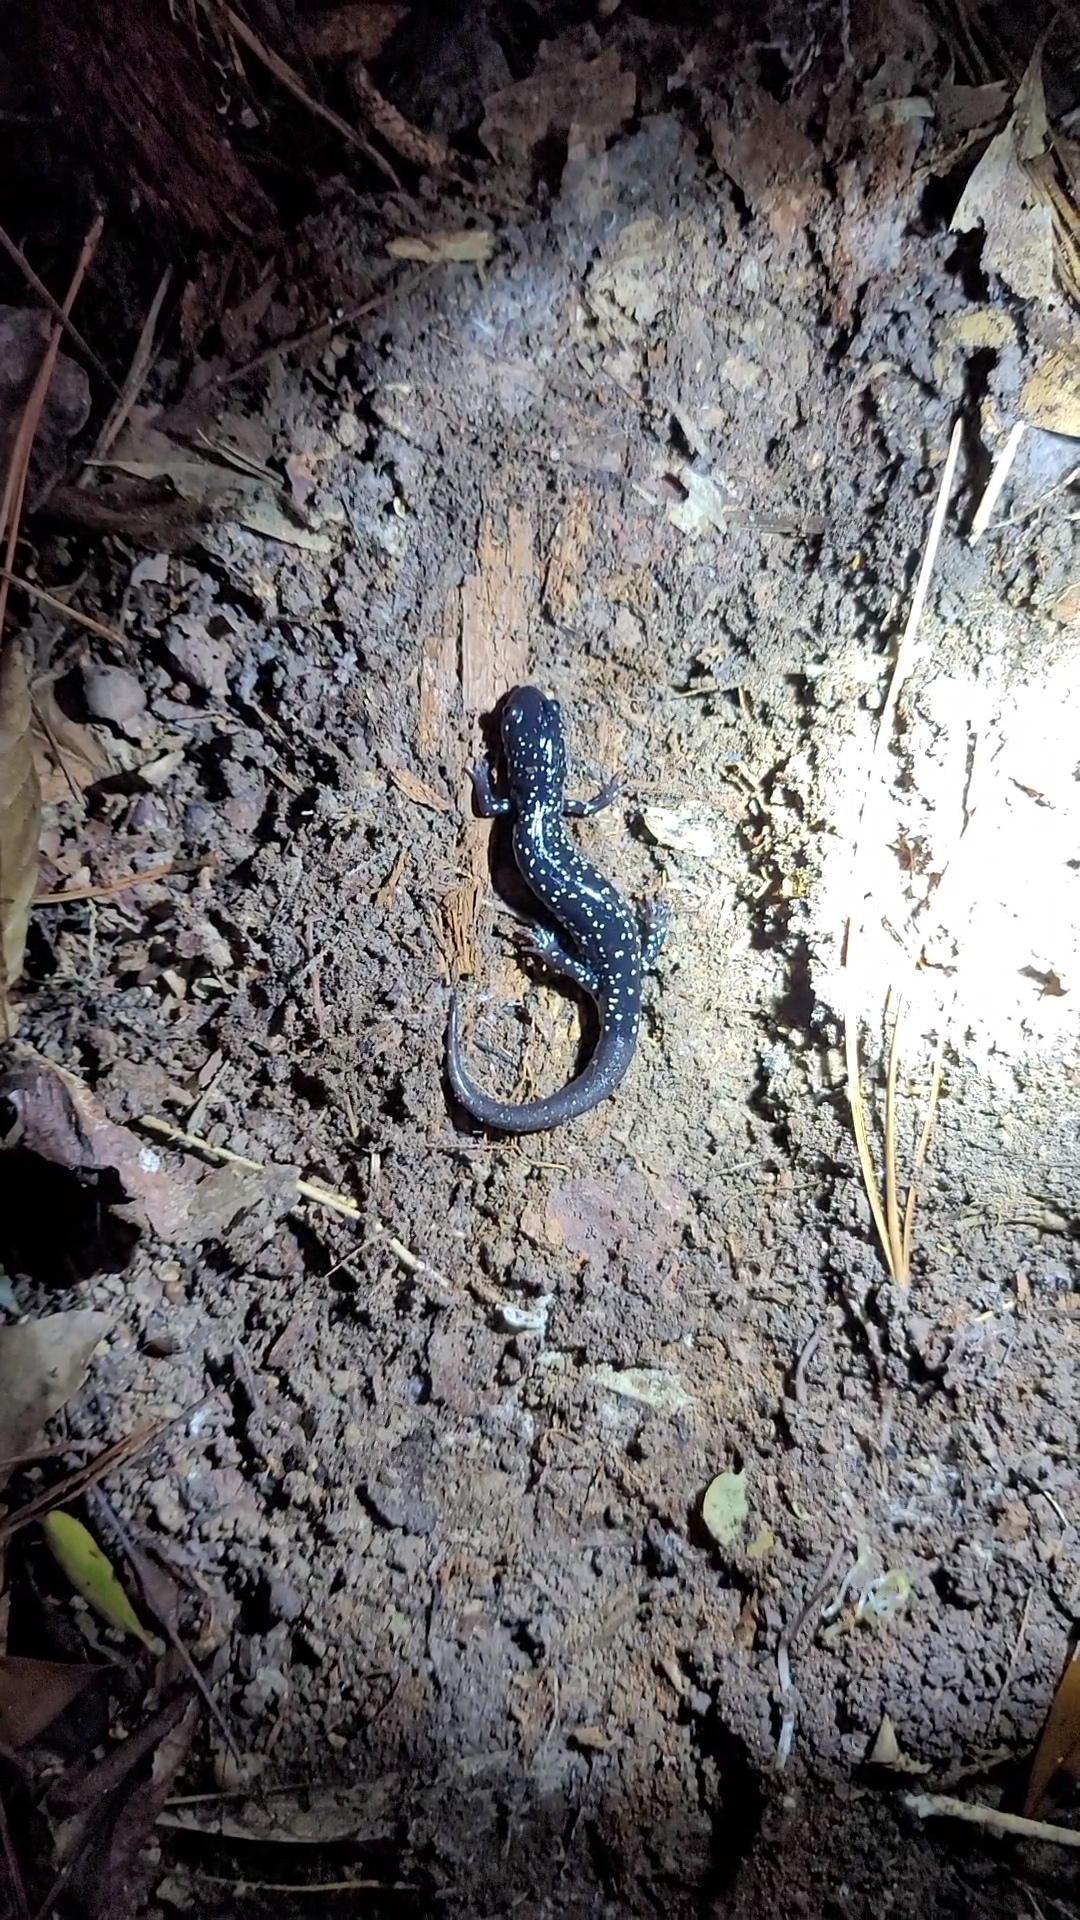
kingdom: Animalia
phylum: Chordata
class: Amphibia
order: Caudata
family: Plethodontidae
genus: Plethodon
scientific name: Plethodon glutinosus
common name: Northern slimy salamander
